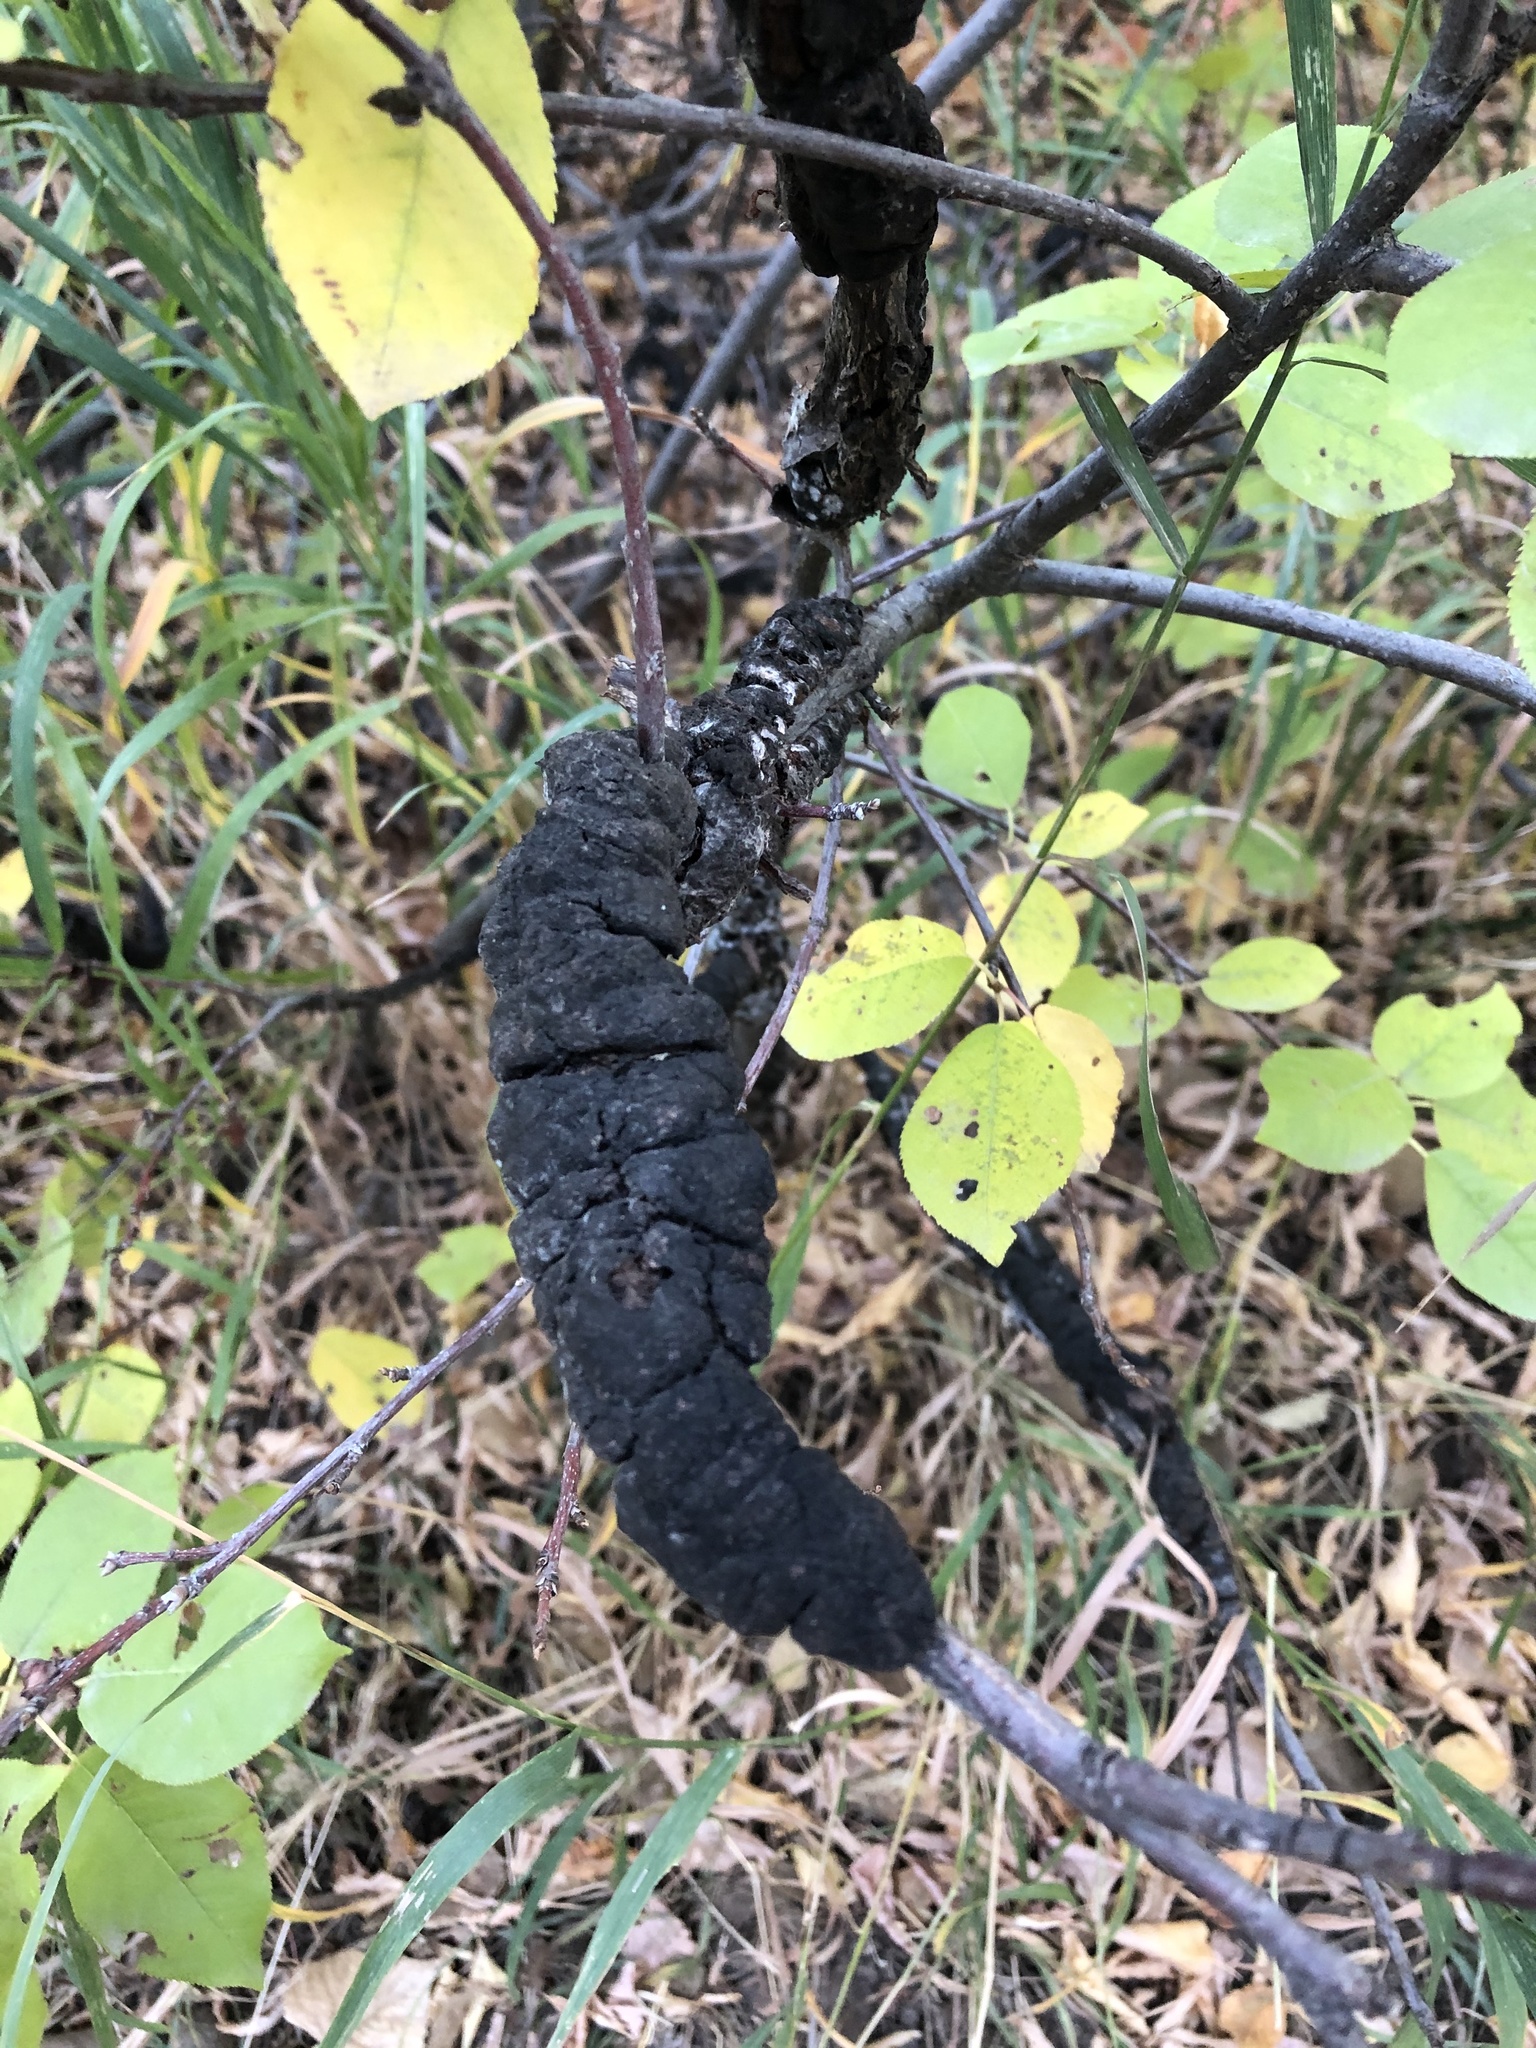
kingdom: Fungi
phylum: Ascomycota
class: Dothideomycetes
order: Venturiales
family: Venturiaceae
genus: Apiosporina
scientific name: Apiosporina morbosa
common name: Black knot
